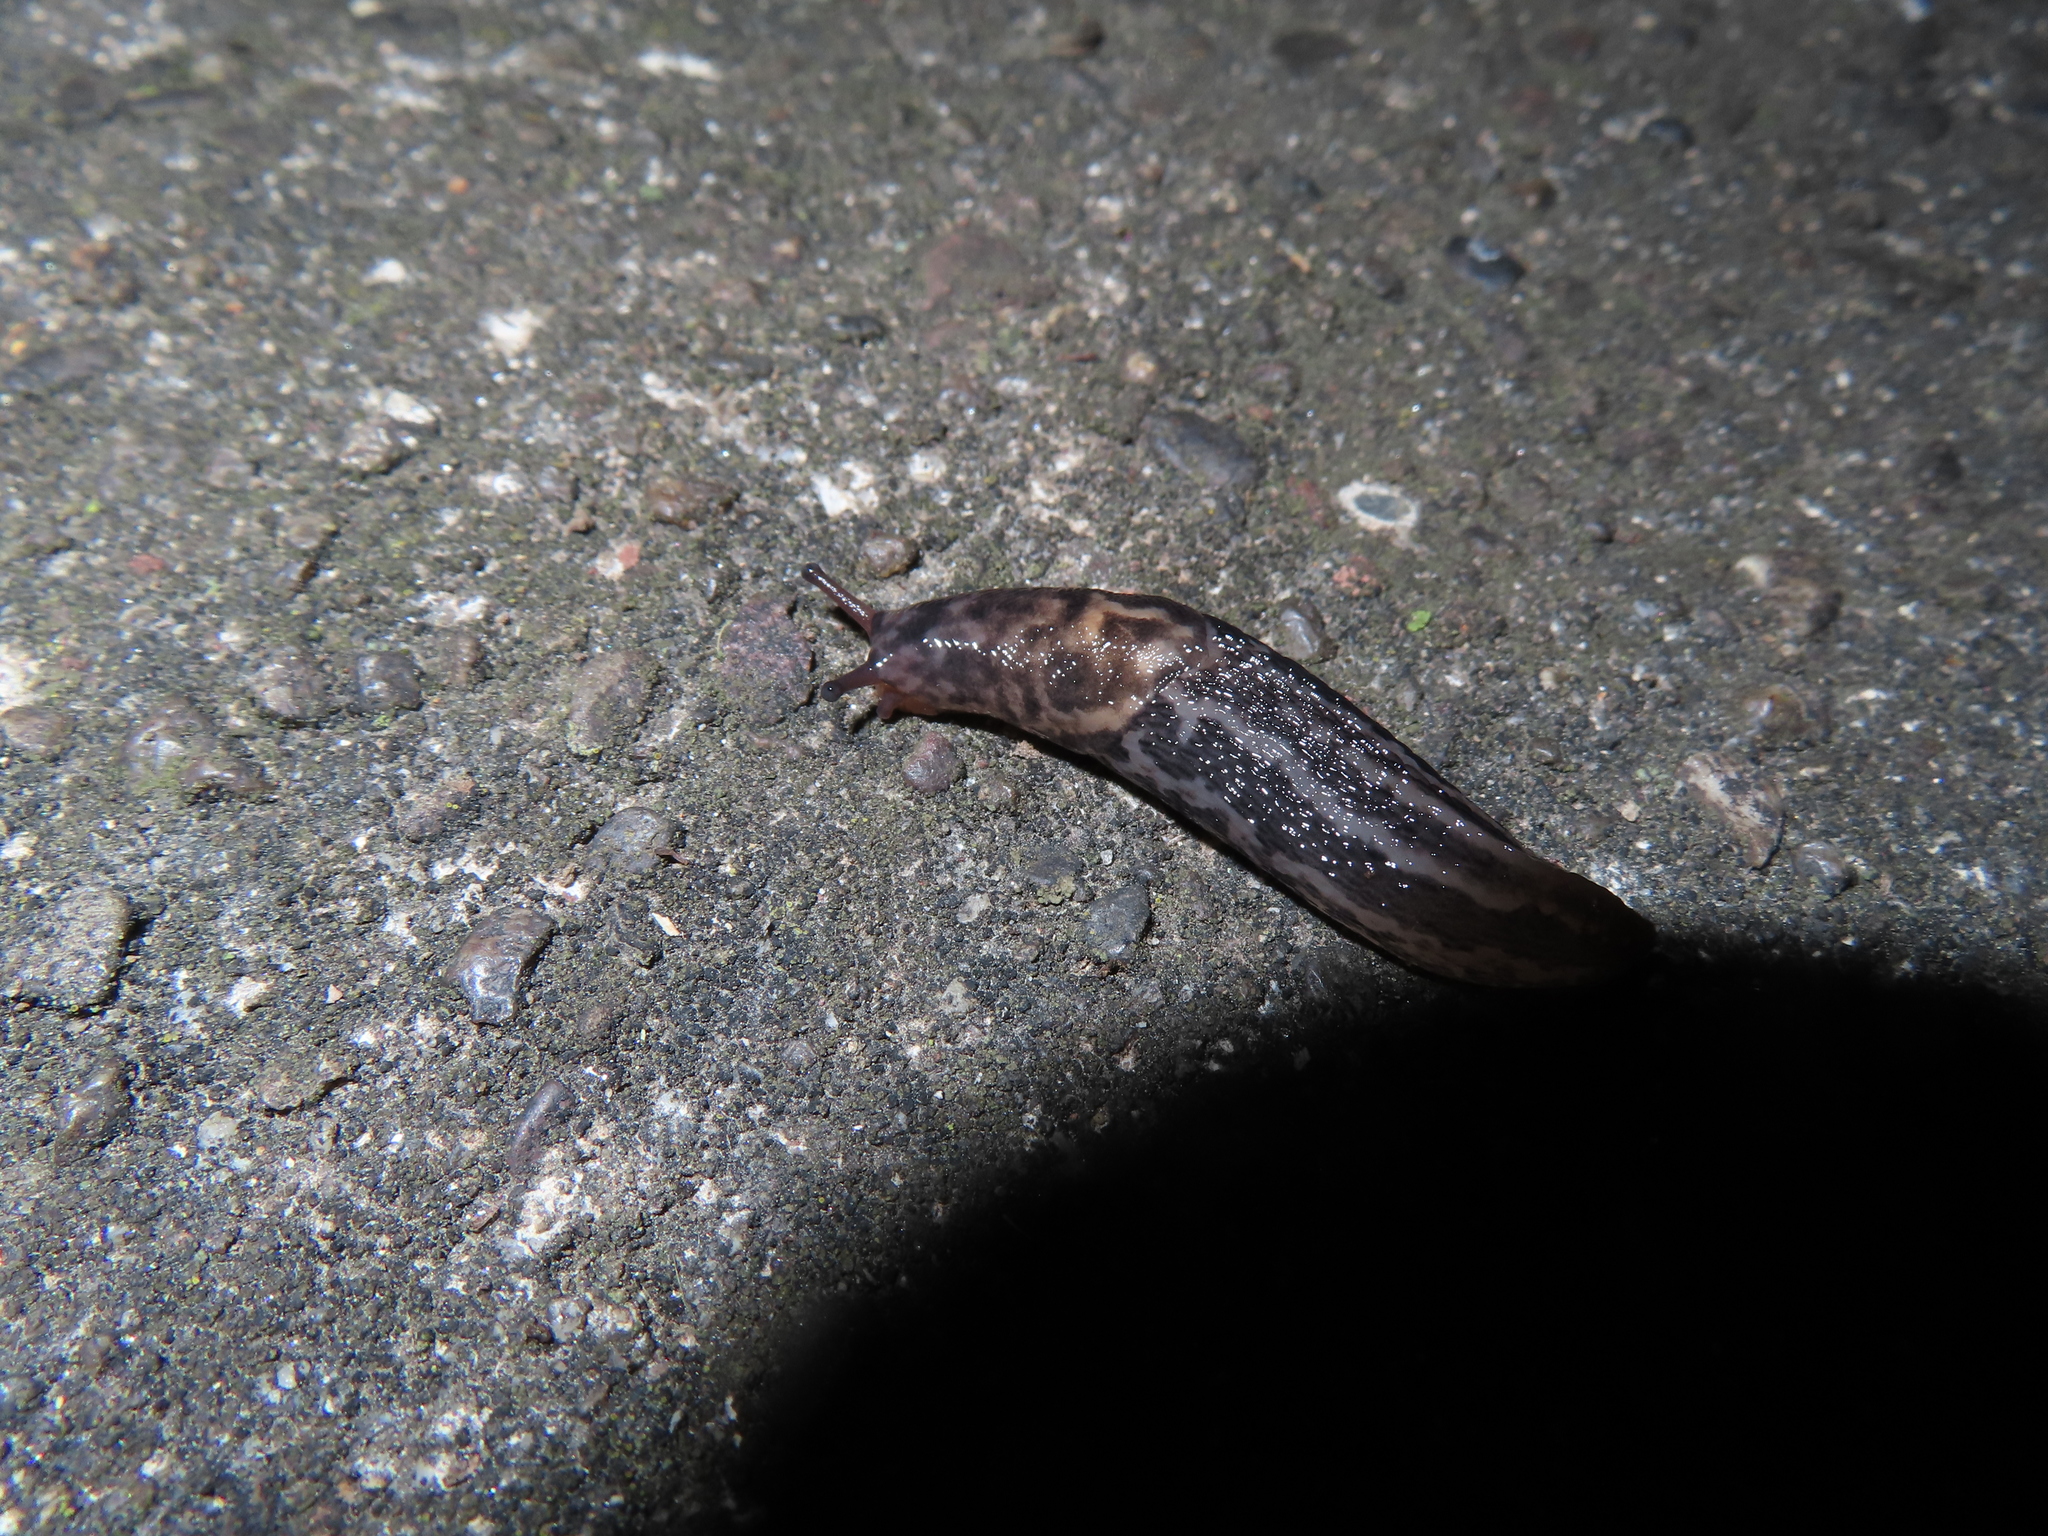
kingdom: Animalia
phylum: Mollusca
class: Gastropoda
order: Stylommatophora
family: Limacidae
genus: Limax
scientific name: Limax maximus
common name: Great grey slug
